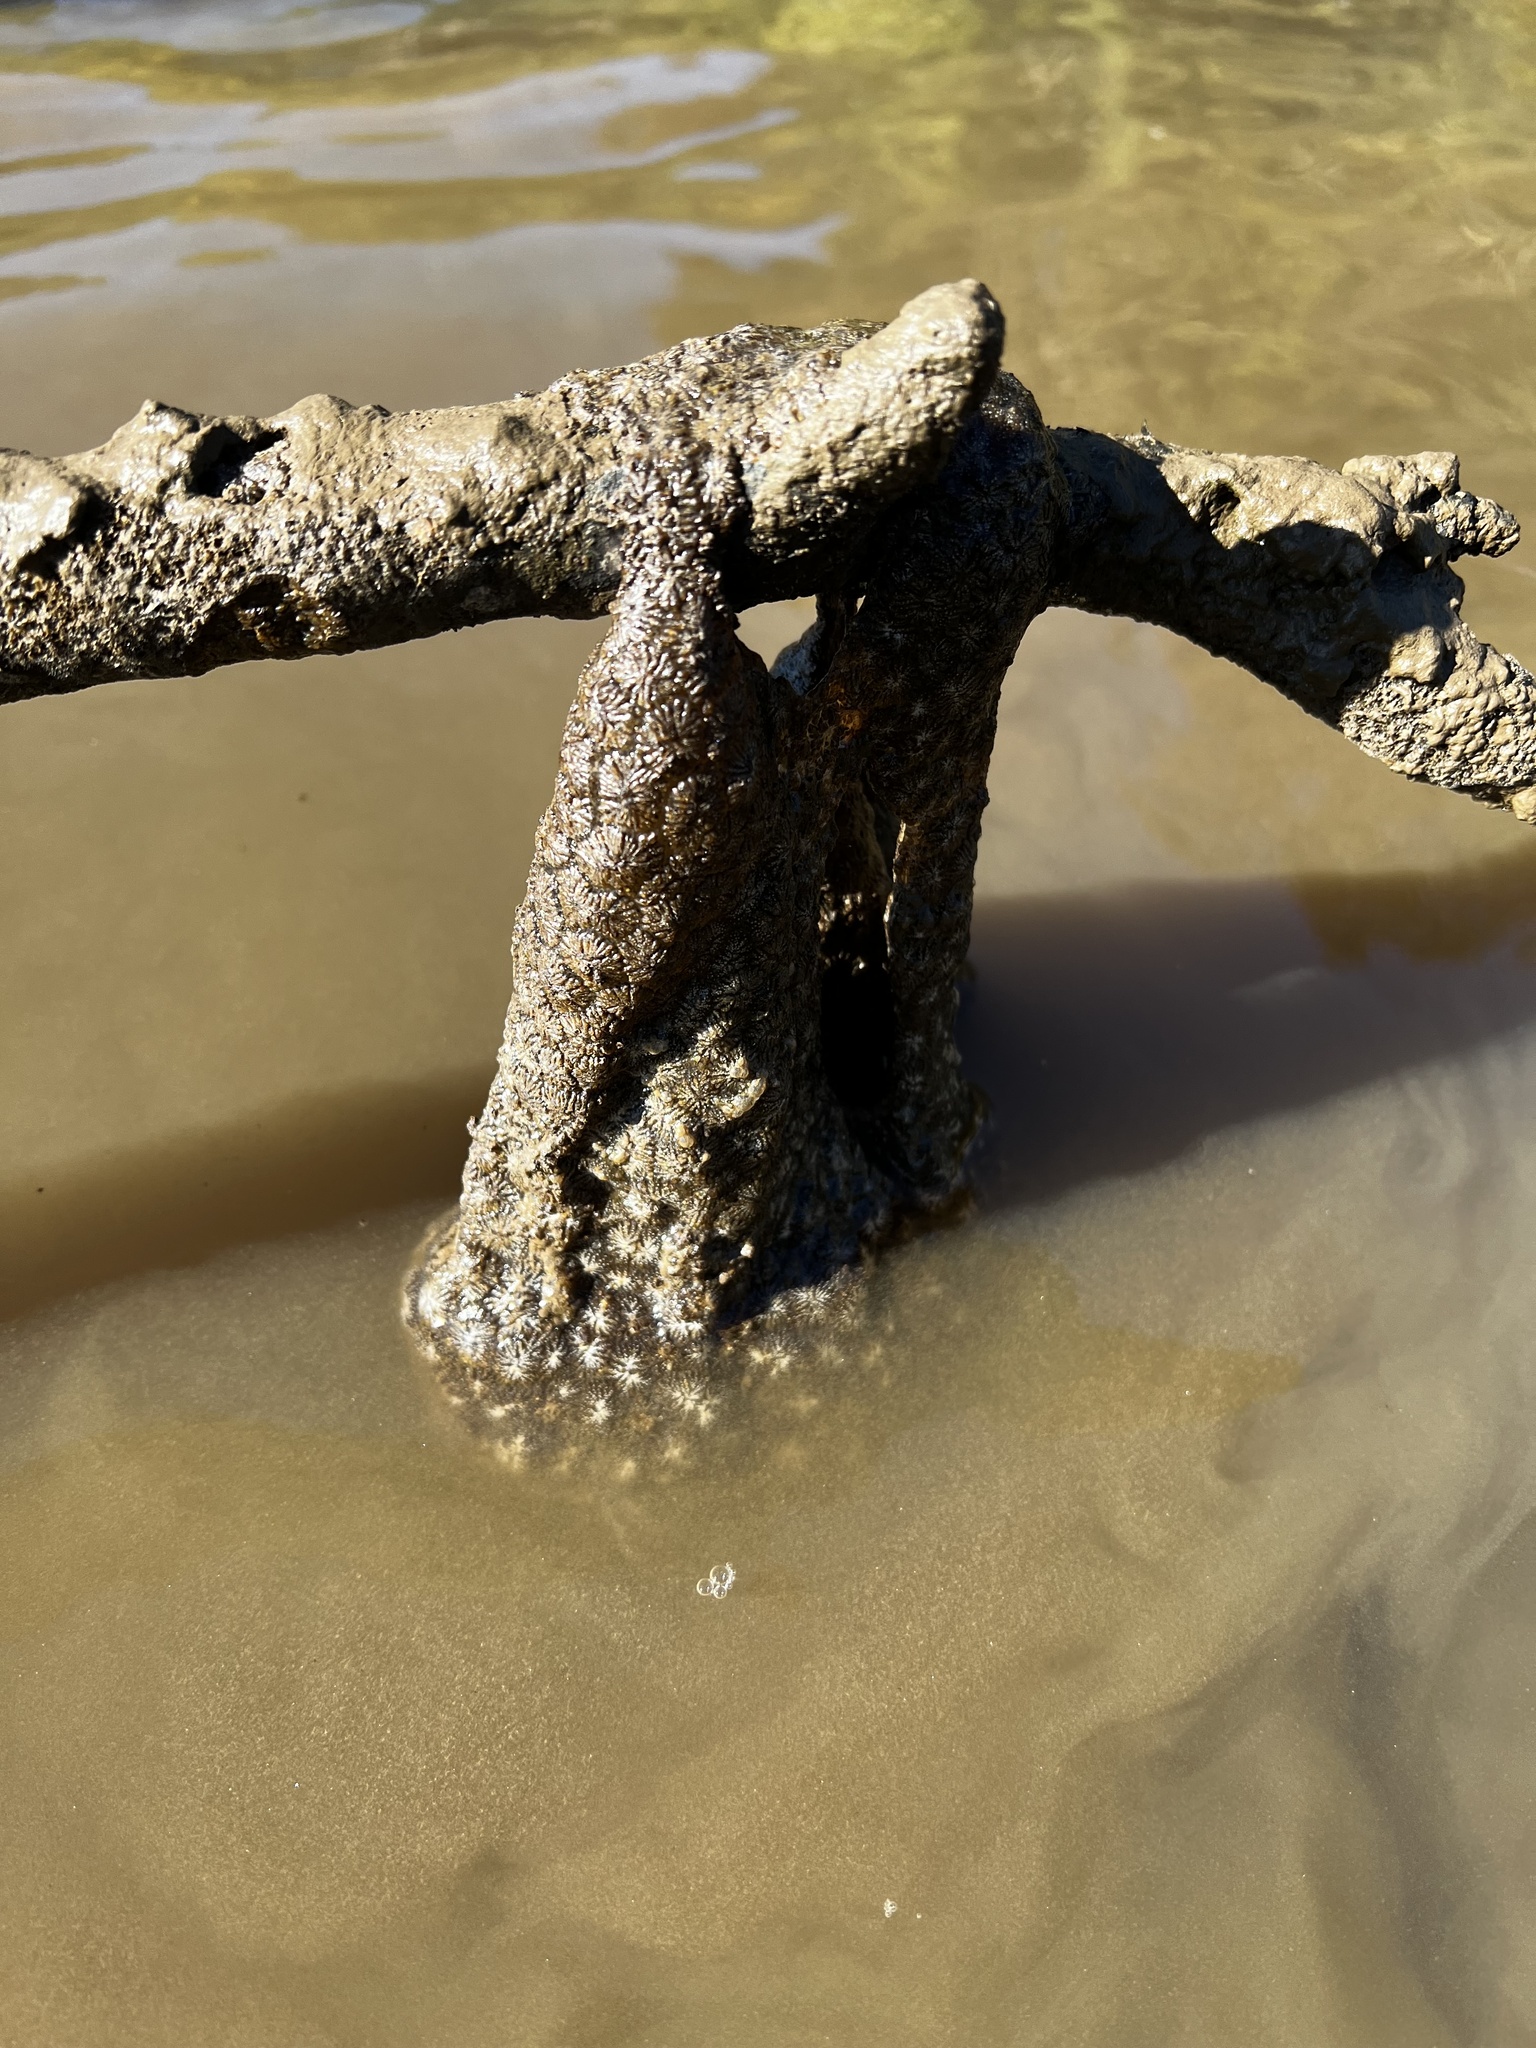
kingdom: Animalia
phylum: Bryozoa
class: Phylactolaemata
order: Plumatellida
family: Pectinatellidae
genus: Pectinatella
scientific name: Pectinatella magnifica
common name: Magnificent bryozoan
